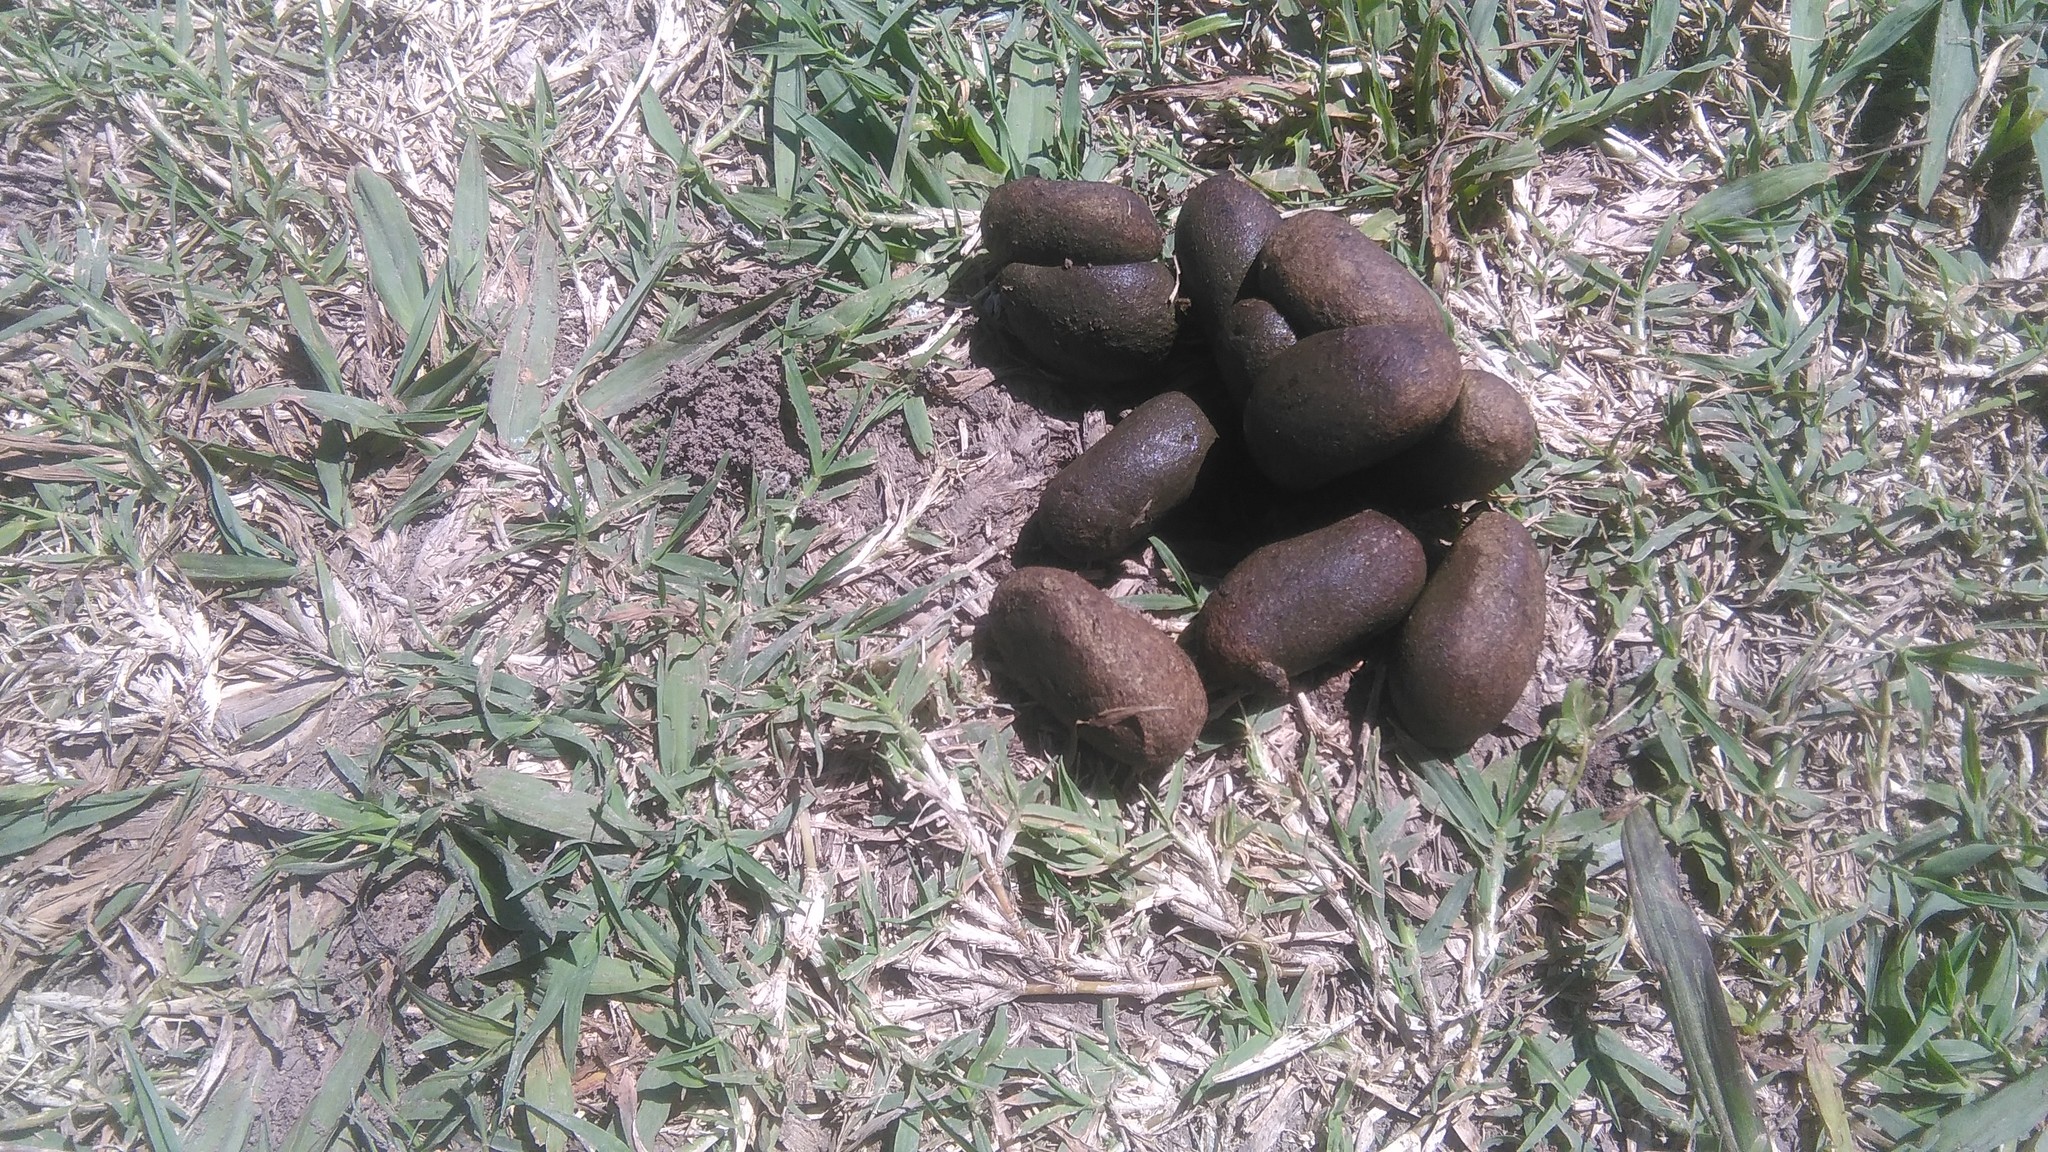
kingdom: Animalia
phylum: Chordata
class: Mammalia
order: Rodentia
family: Caviidae
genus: Hydrochoerus
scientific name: Hydrochoerus hydrochaeris
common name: Capybara
